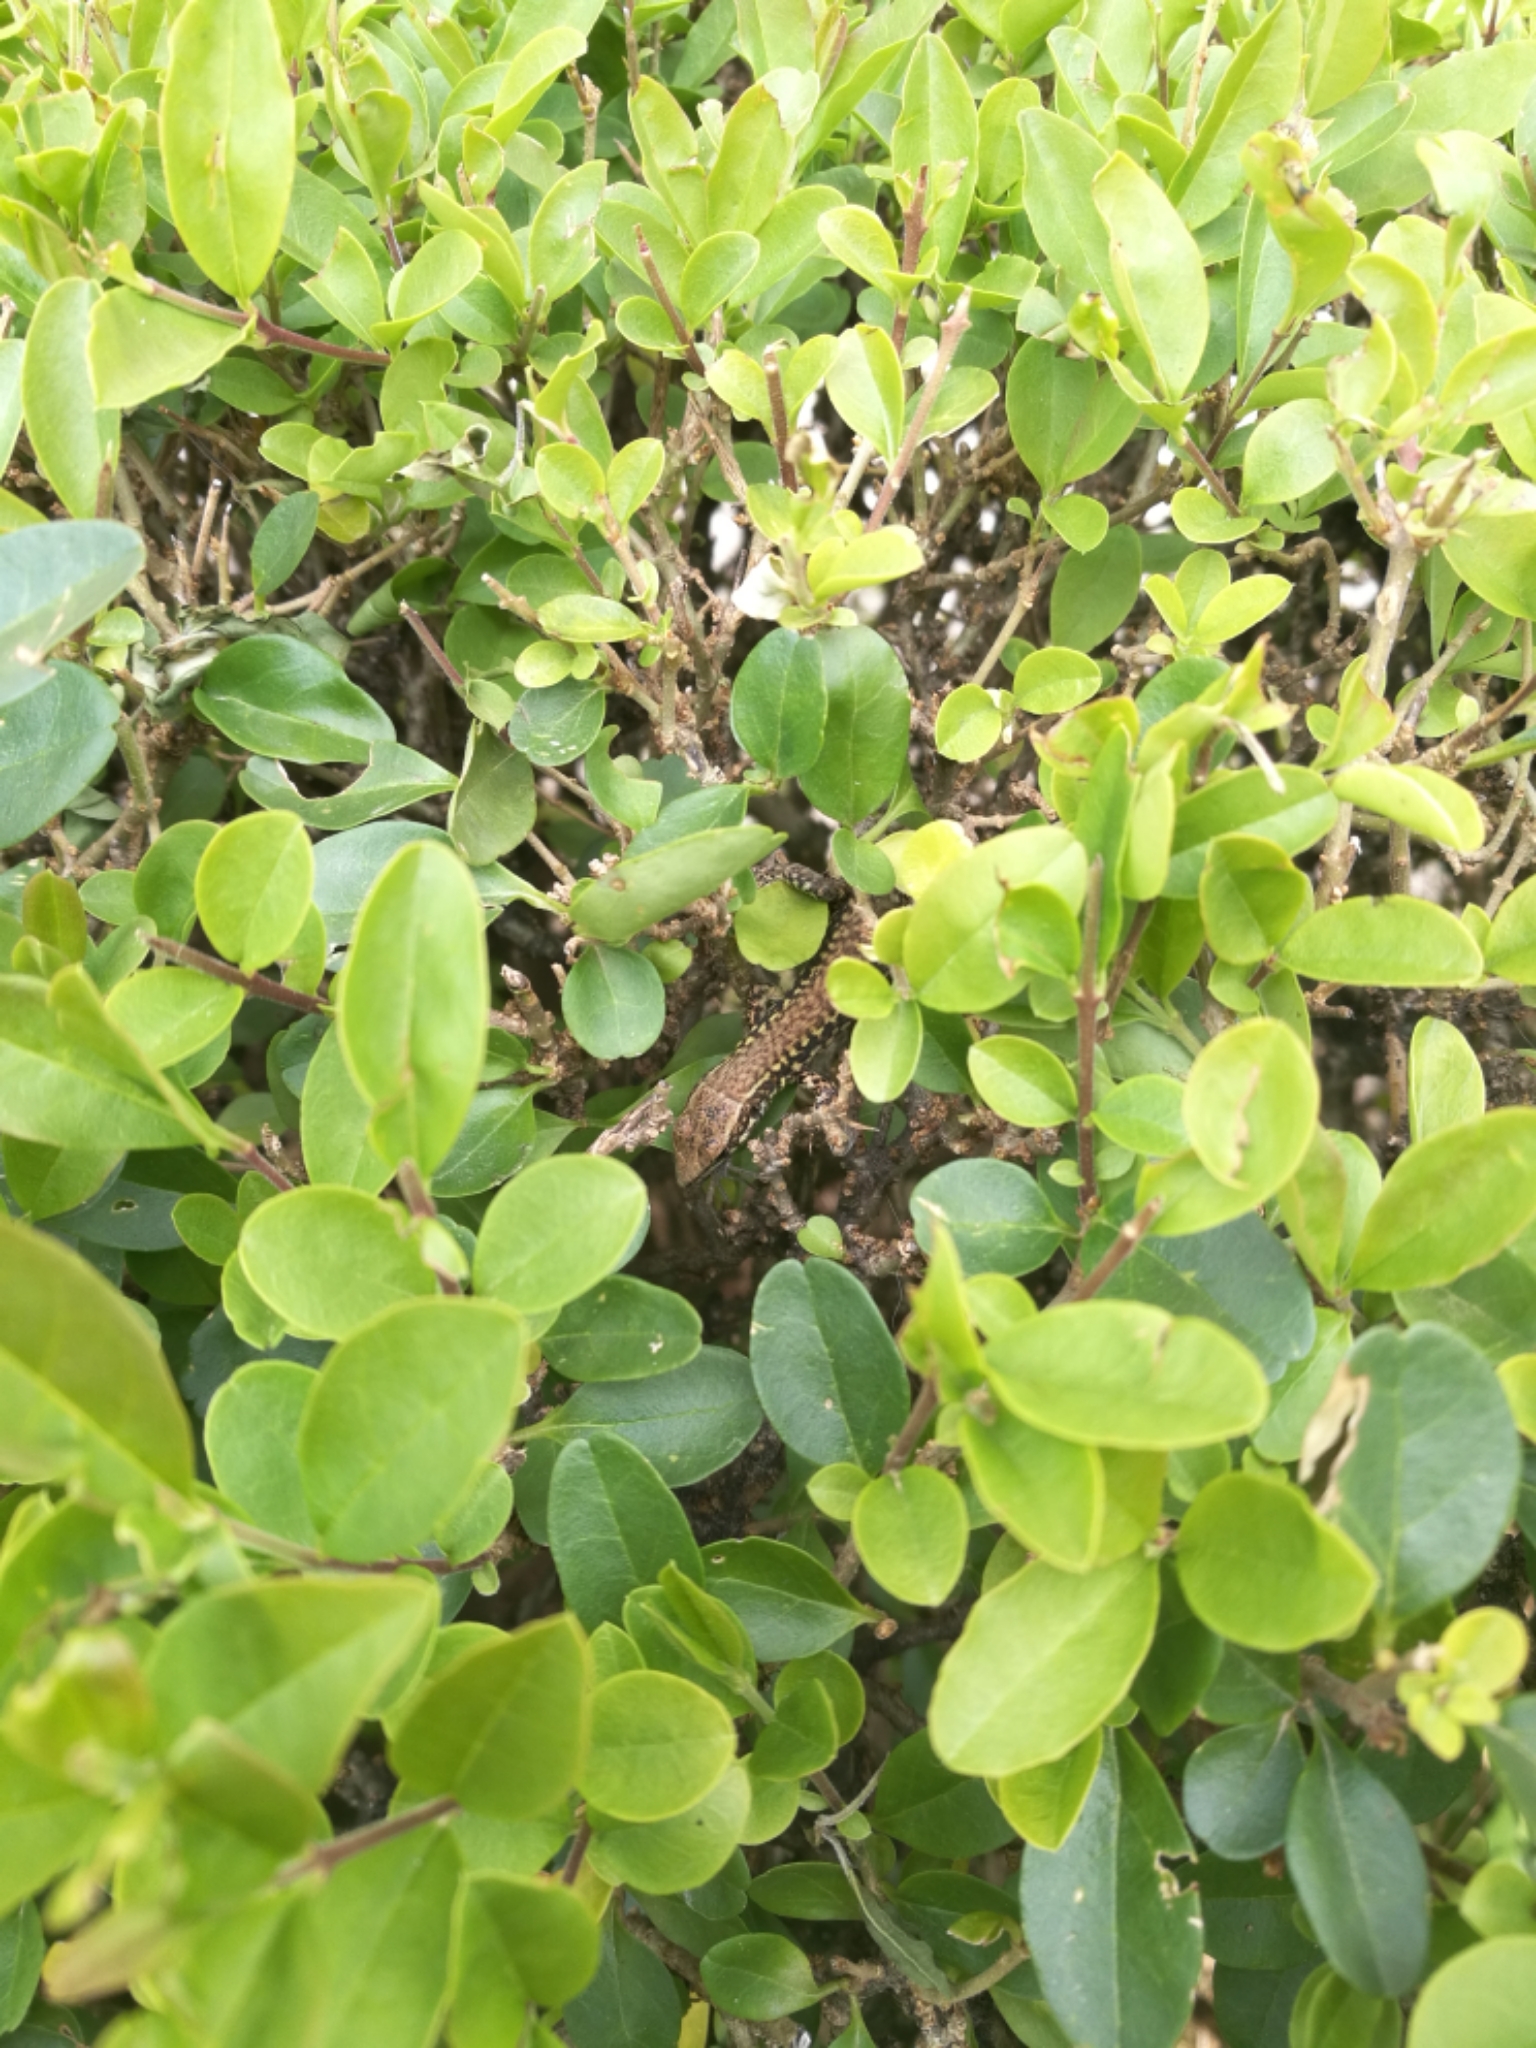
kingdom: Animalia
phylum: Chordata
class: Squamata
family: Lacertidae
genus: Podarcis
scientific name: Podarcis muralis
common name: Common wall lizard
